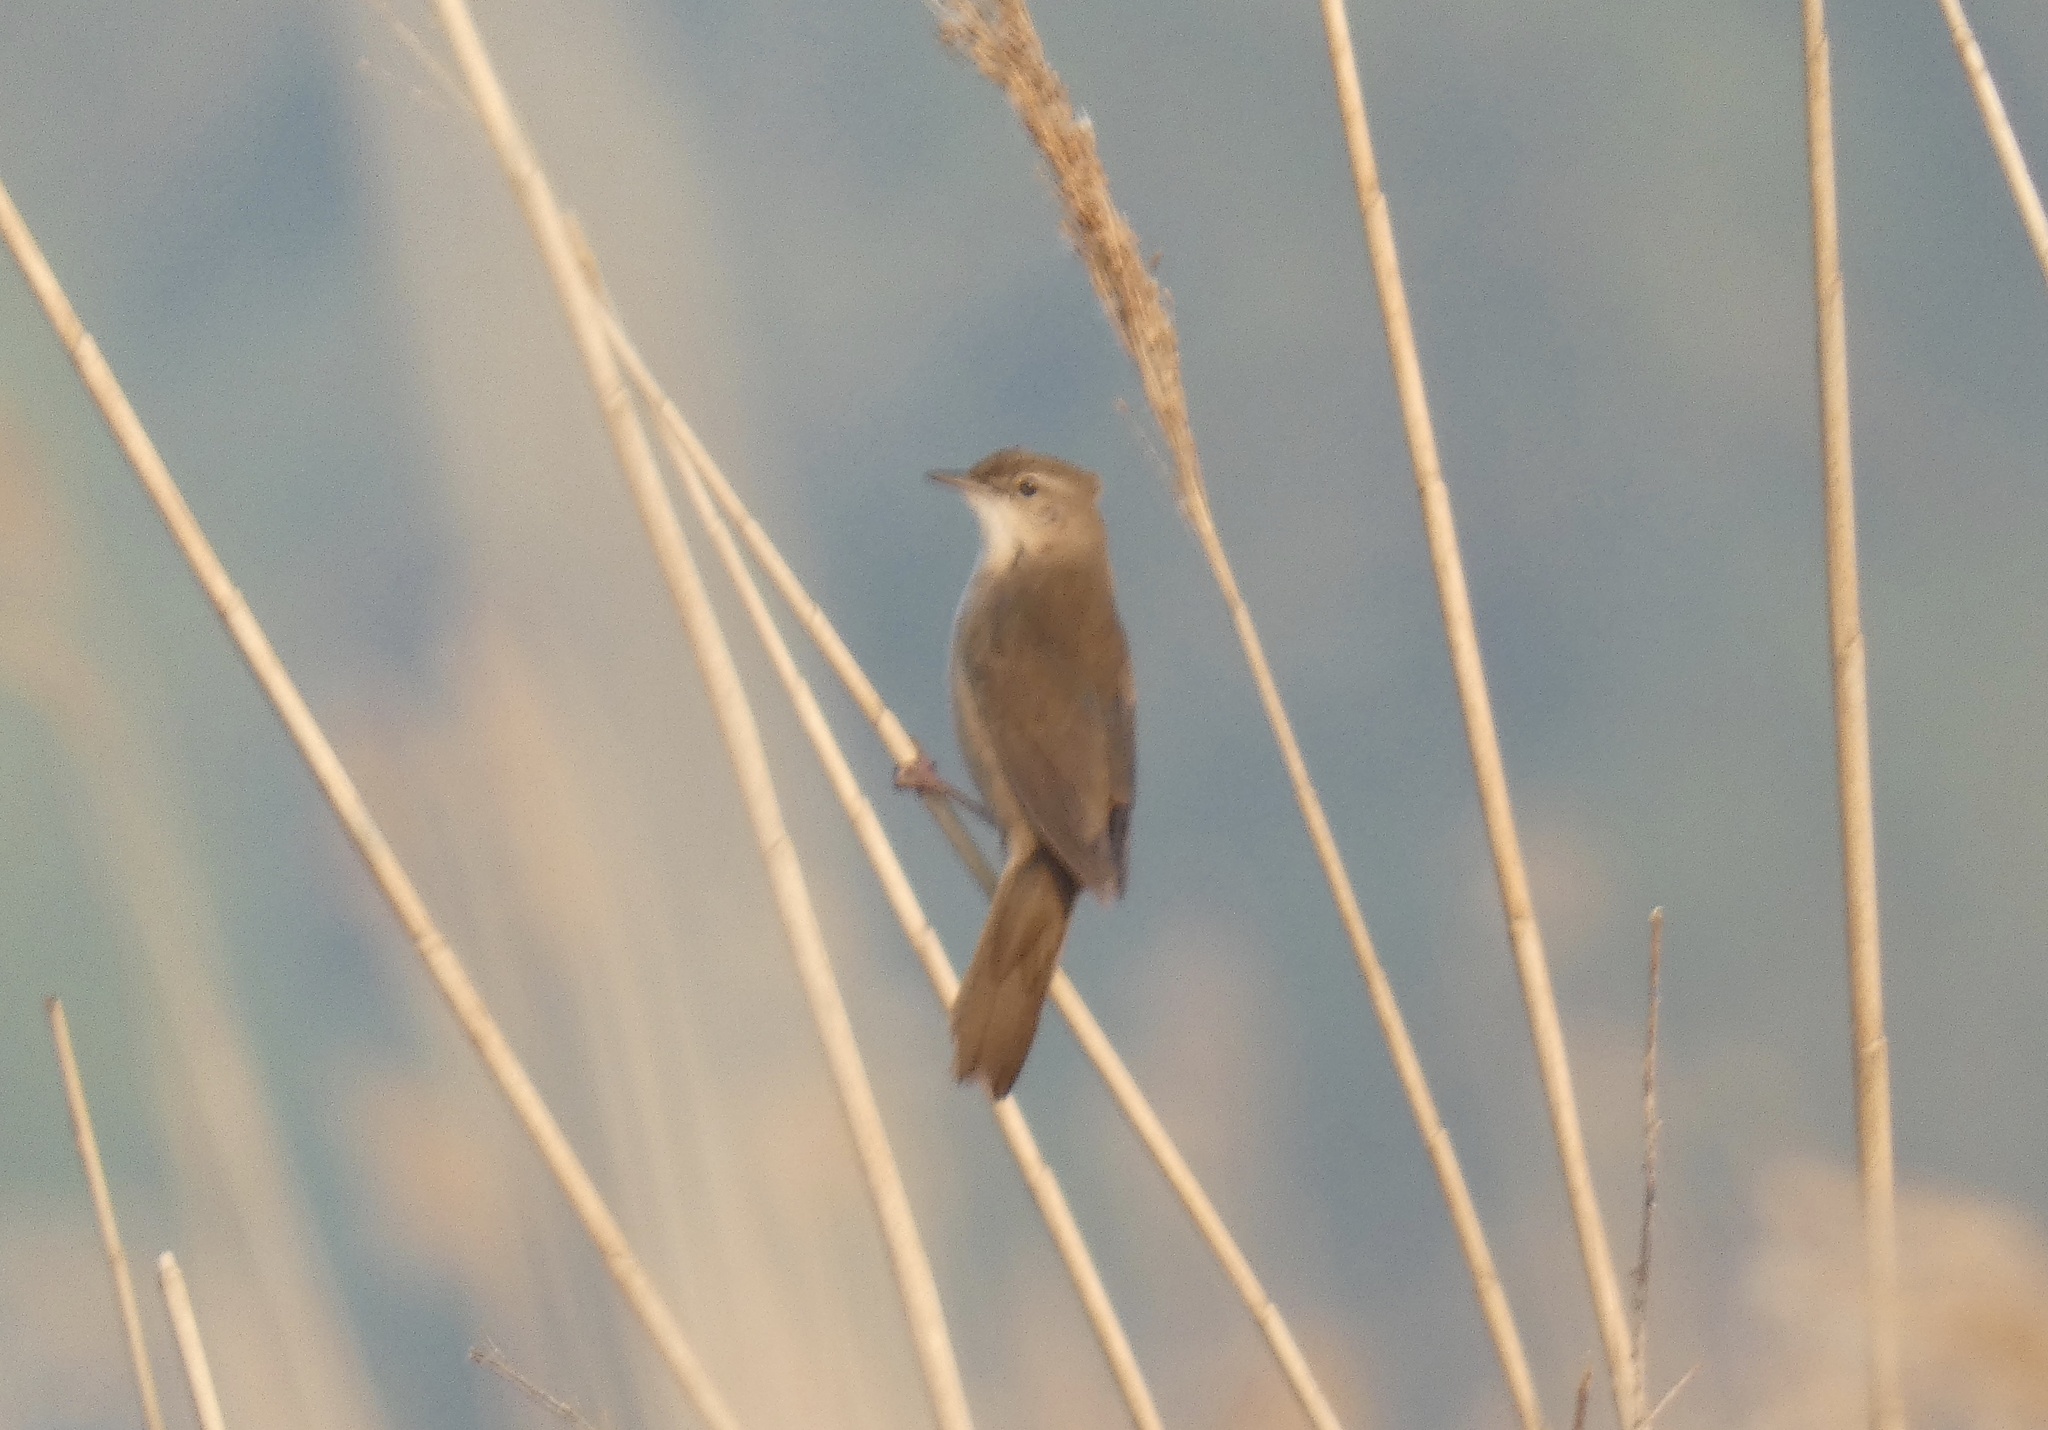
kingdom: Animalia
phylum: Chordata
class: Aves
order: Passeriformes
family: Locustellidae
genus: Locustella
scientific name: Locustella luscinioides
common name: Savi's warbler
